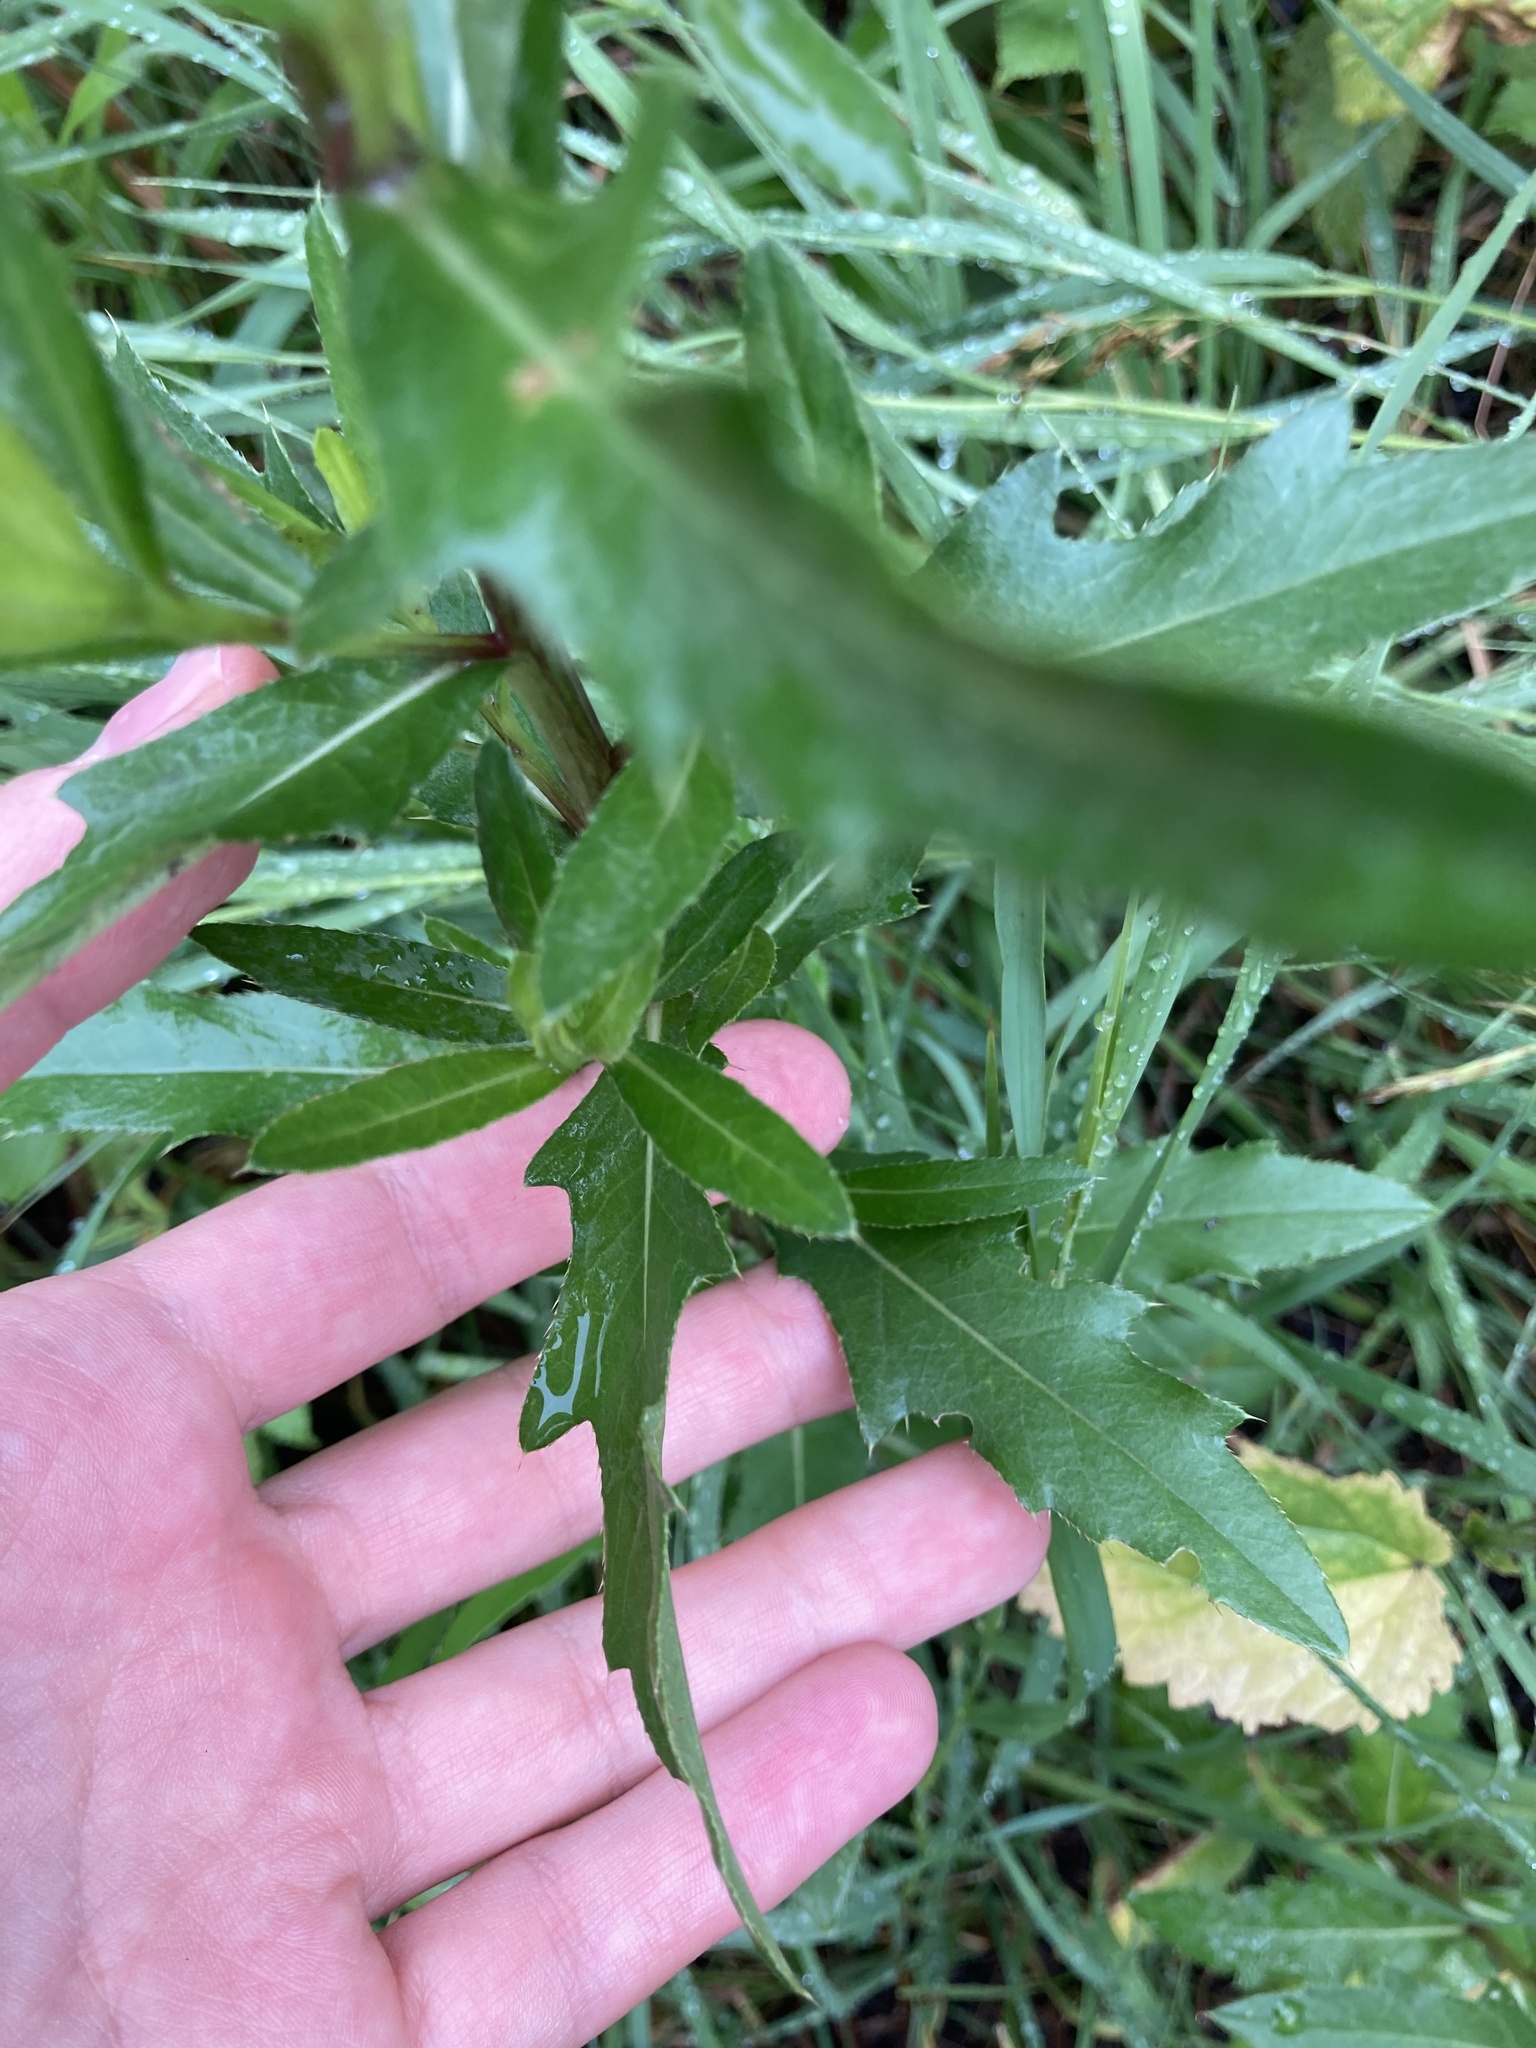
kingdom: Plantae
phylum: Tracheophyta
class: Magnoliopsida
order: Asterales
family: Asteraceae
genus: Cirsium
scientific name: Cirsium arvense
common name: Creeping thistle
